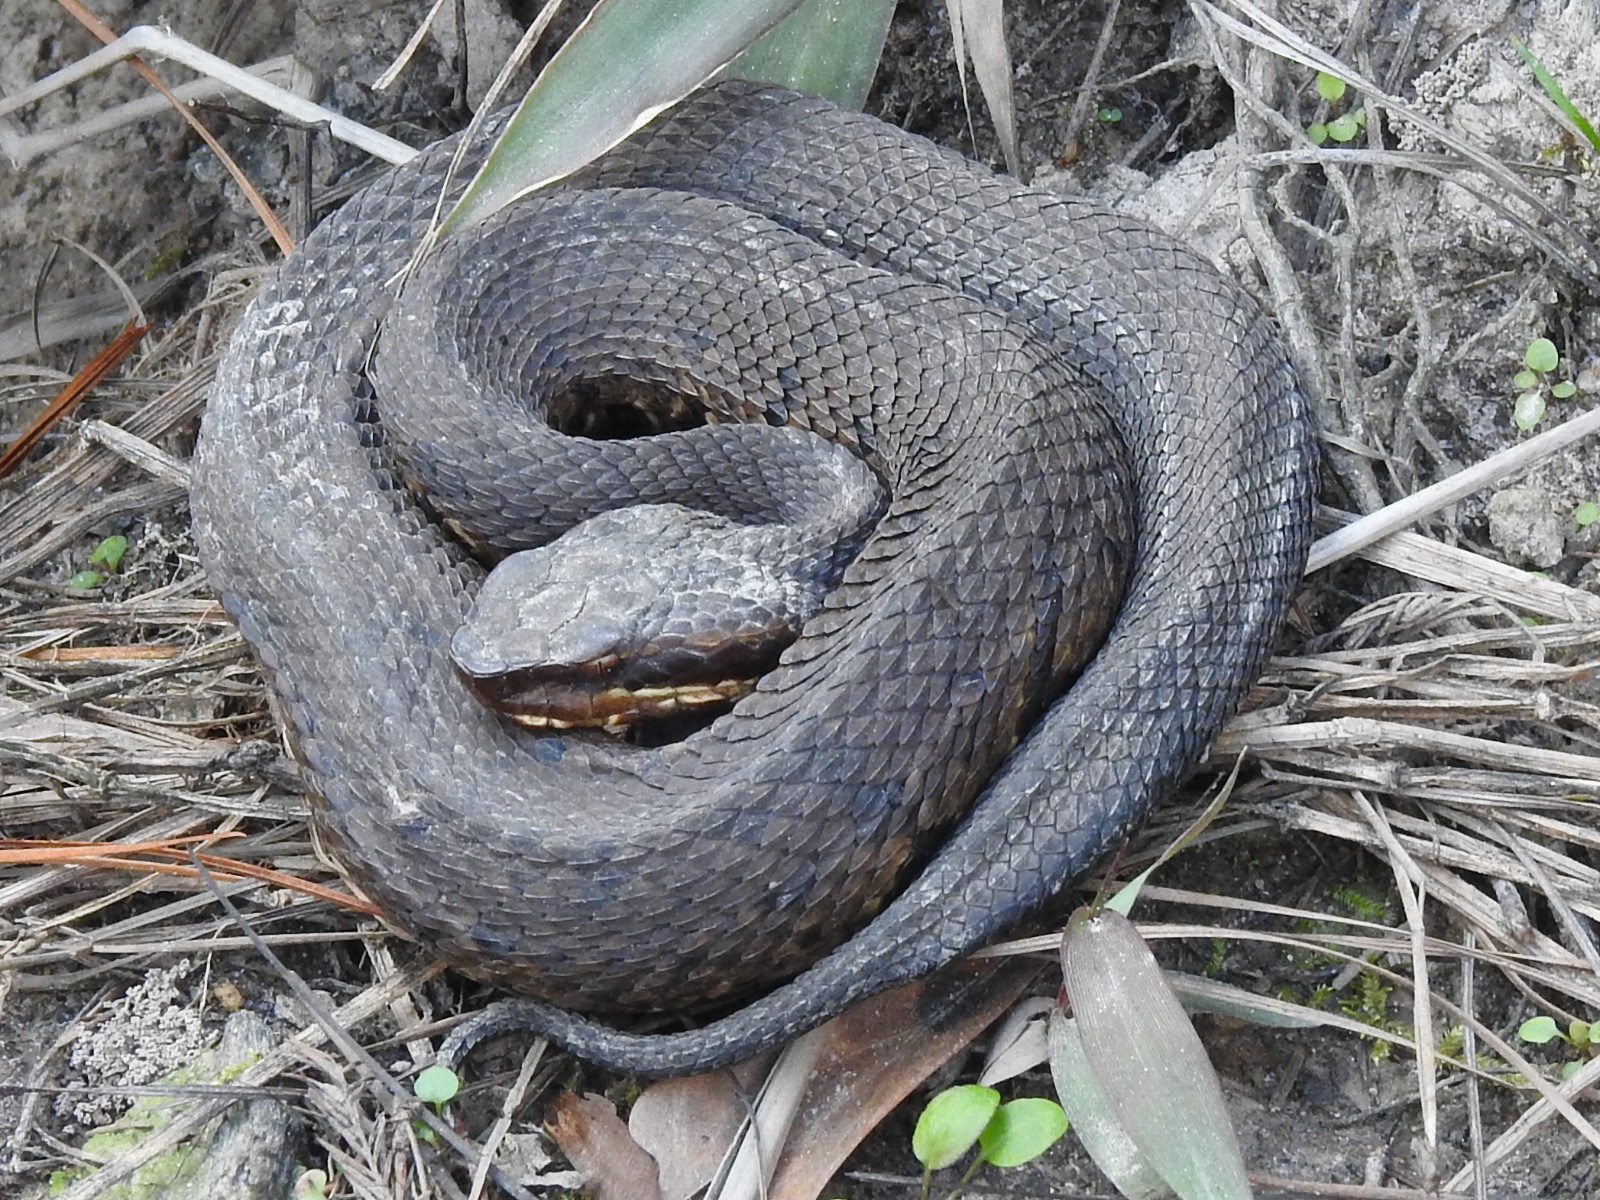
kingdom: Animalia
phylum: Chordata
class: Squamata
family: Viperidae
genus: Agkistrodon
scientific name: Agkistrodon piscivorus
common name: Cottonmouth
